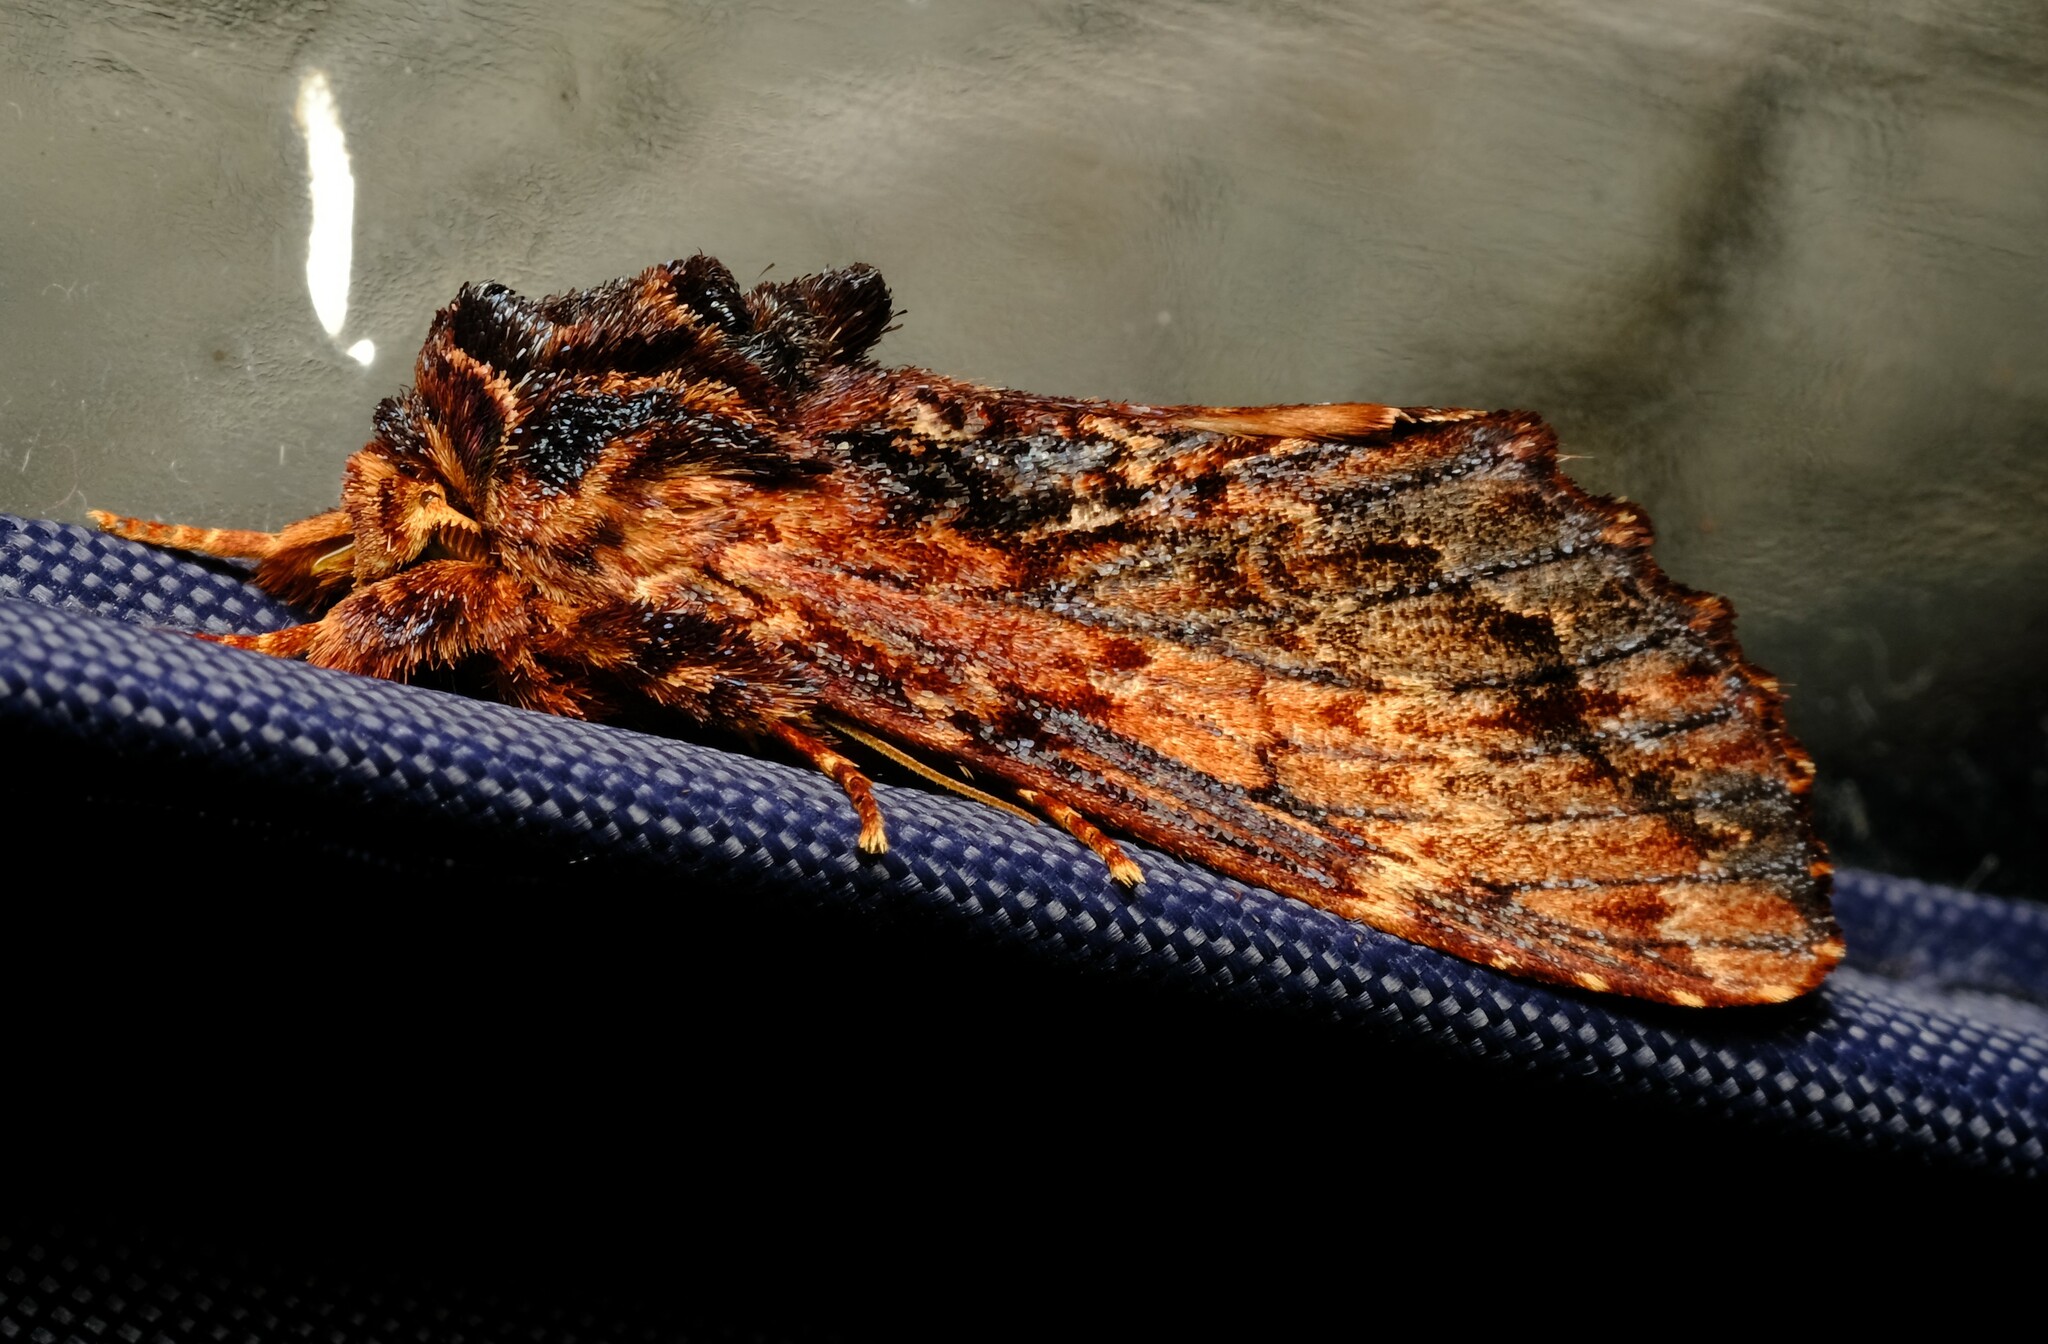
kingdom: Animalia
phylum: Arthropoda
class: Insecta
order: Lepidoptera
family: Notodontidae
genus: Sorama
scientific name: Sorama bicolor
